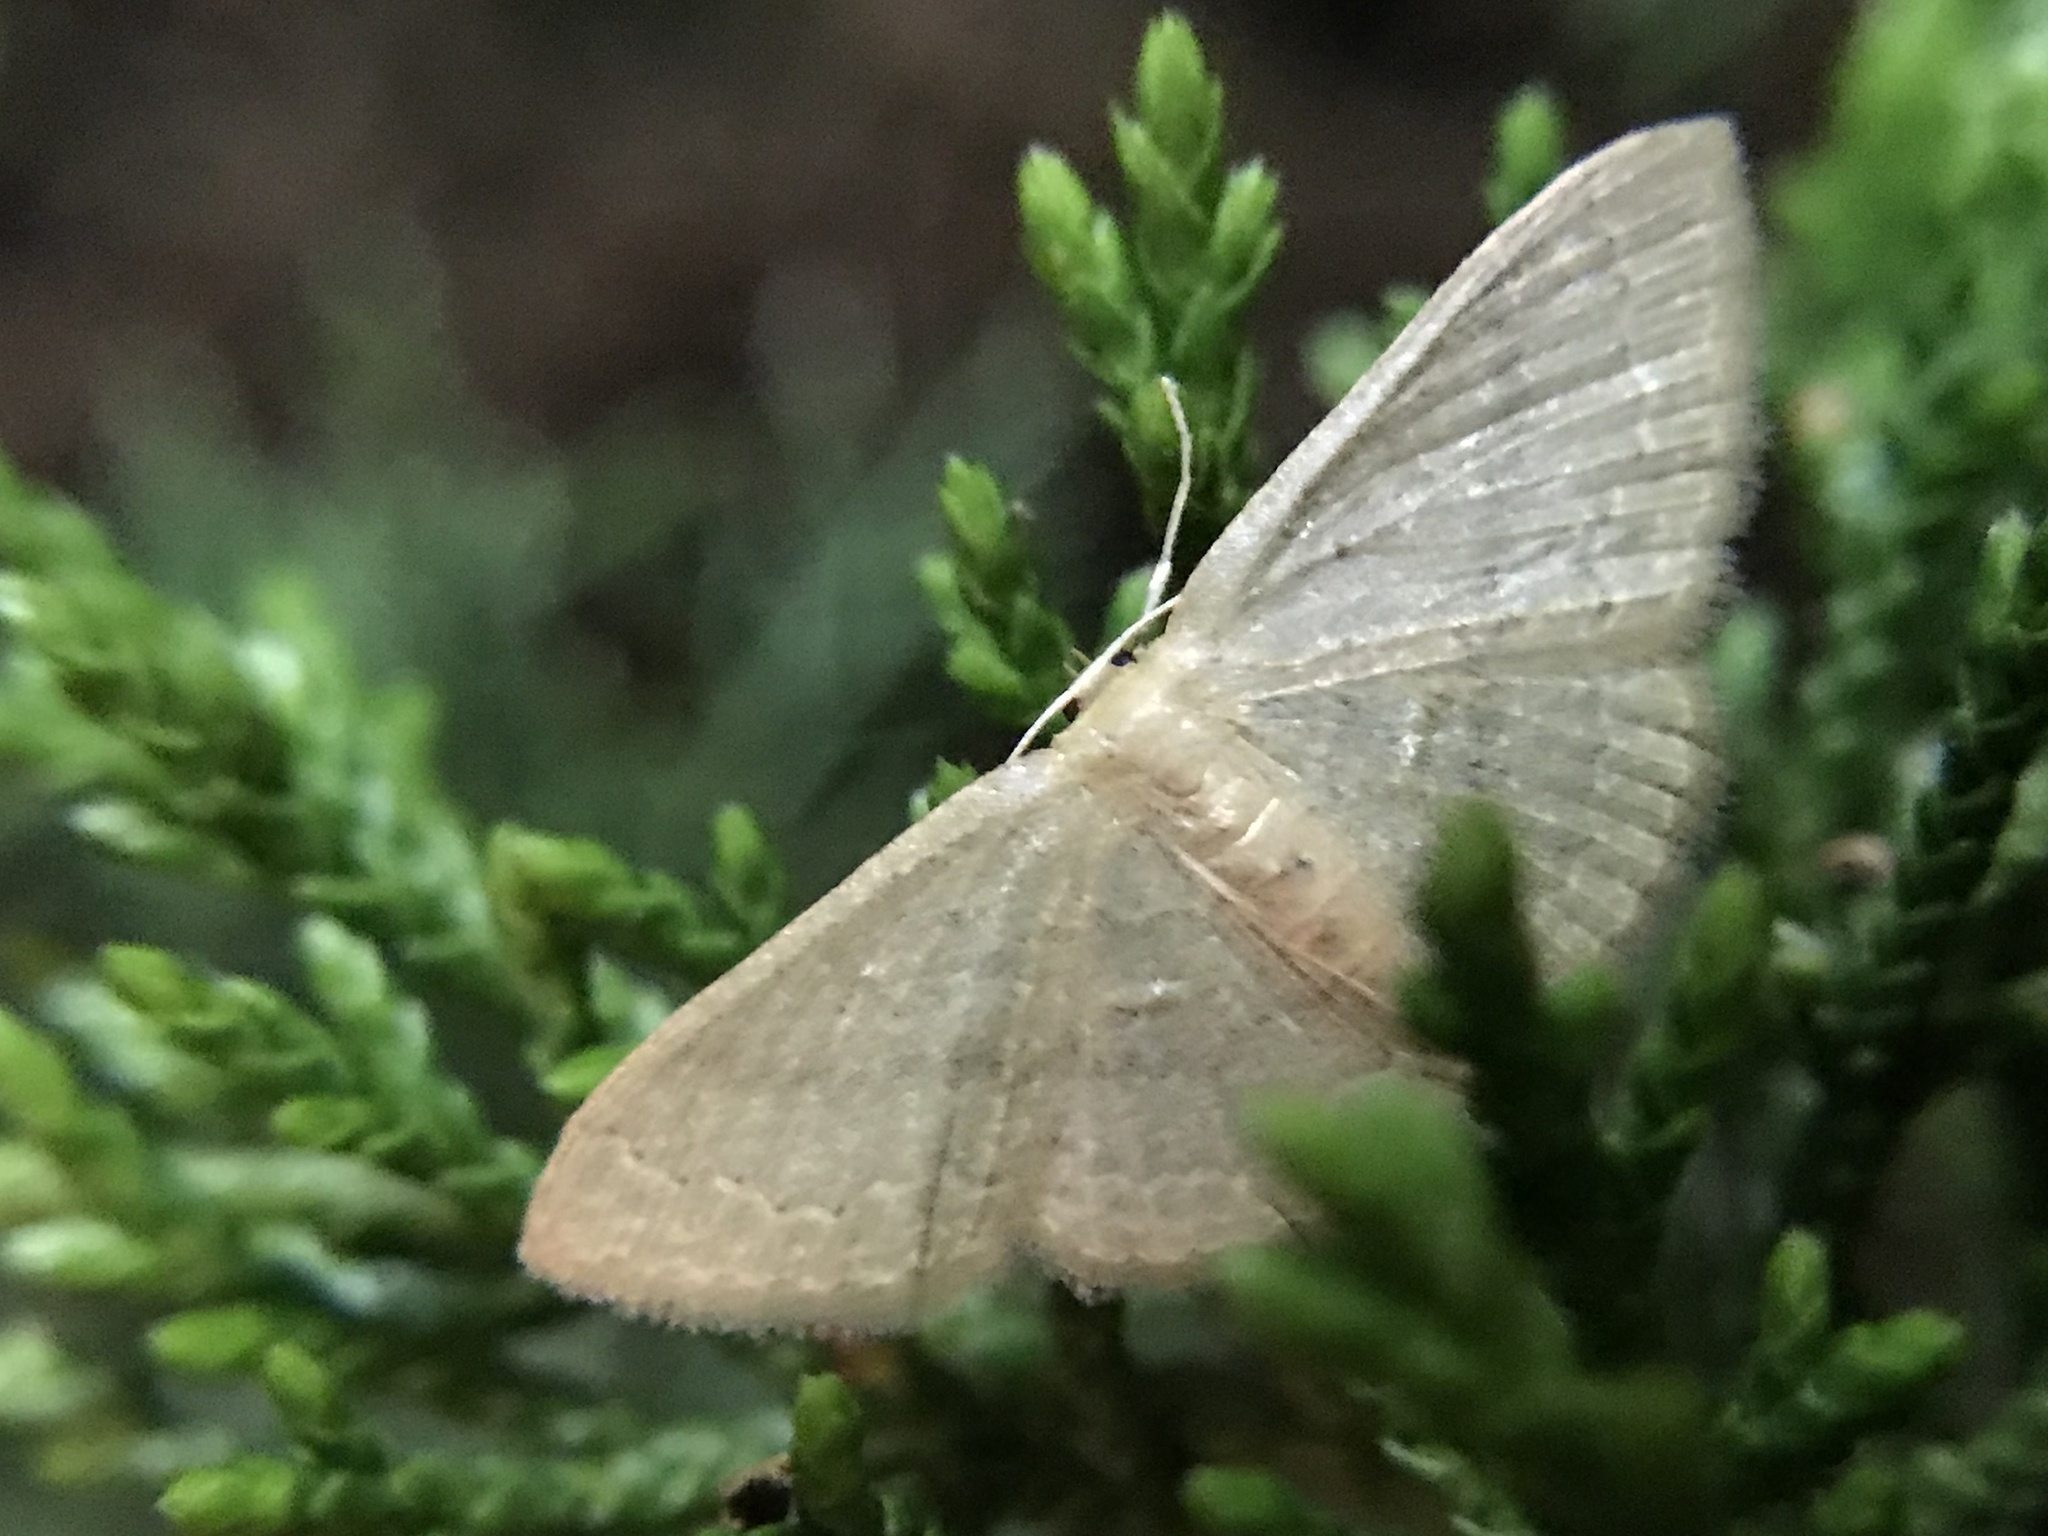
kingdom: Animalia
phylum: Arthropoda
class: Insecta
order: Lepidoptera
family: Geometridae
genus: Pleuroprucha
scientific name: Pleuroprucha insulsaria
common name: Common tan wave
